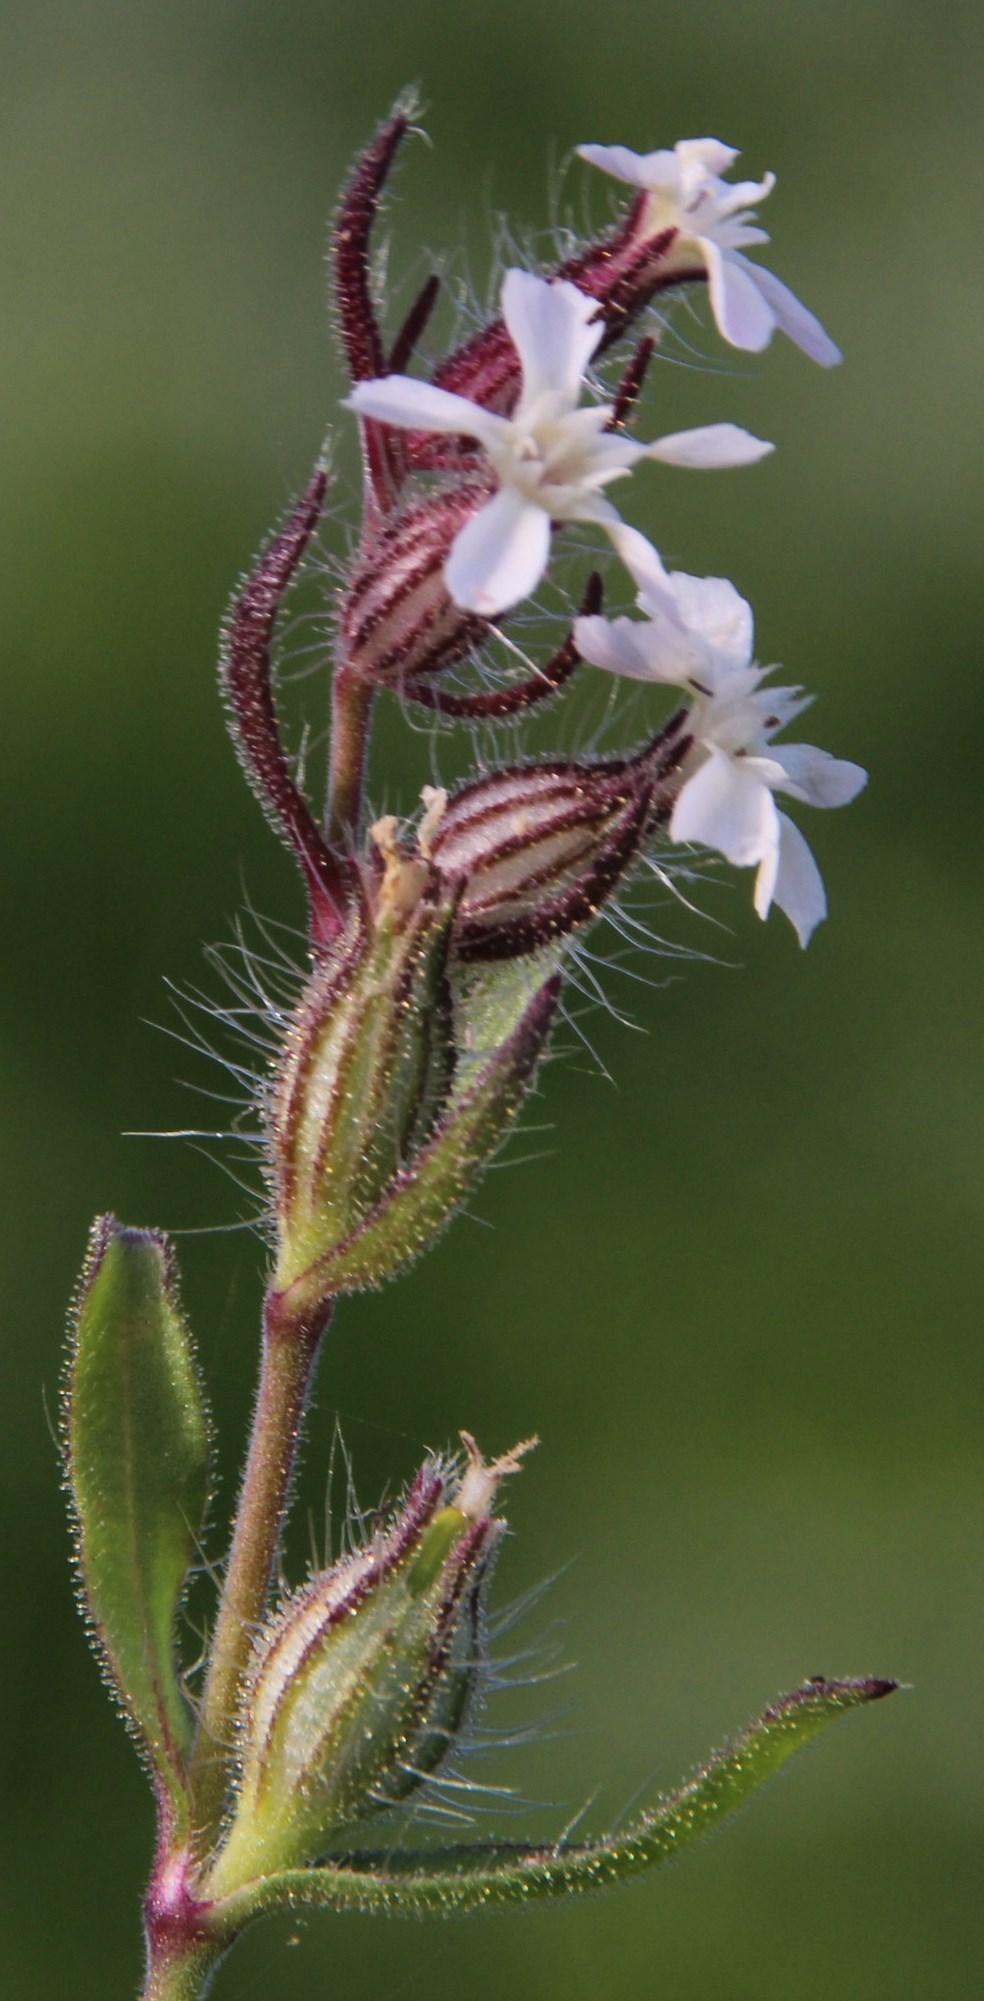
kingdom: Plantae
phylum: Tracheophyta
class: Magnoliopsida
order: Caryophyllales
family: Caryophyllaceae
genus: Silene
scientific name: Silene gallica
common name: Small-flowered catchfly
